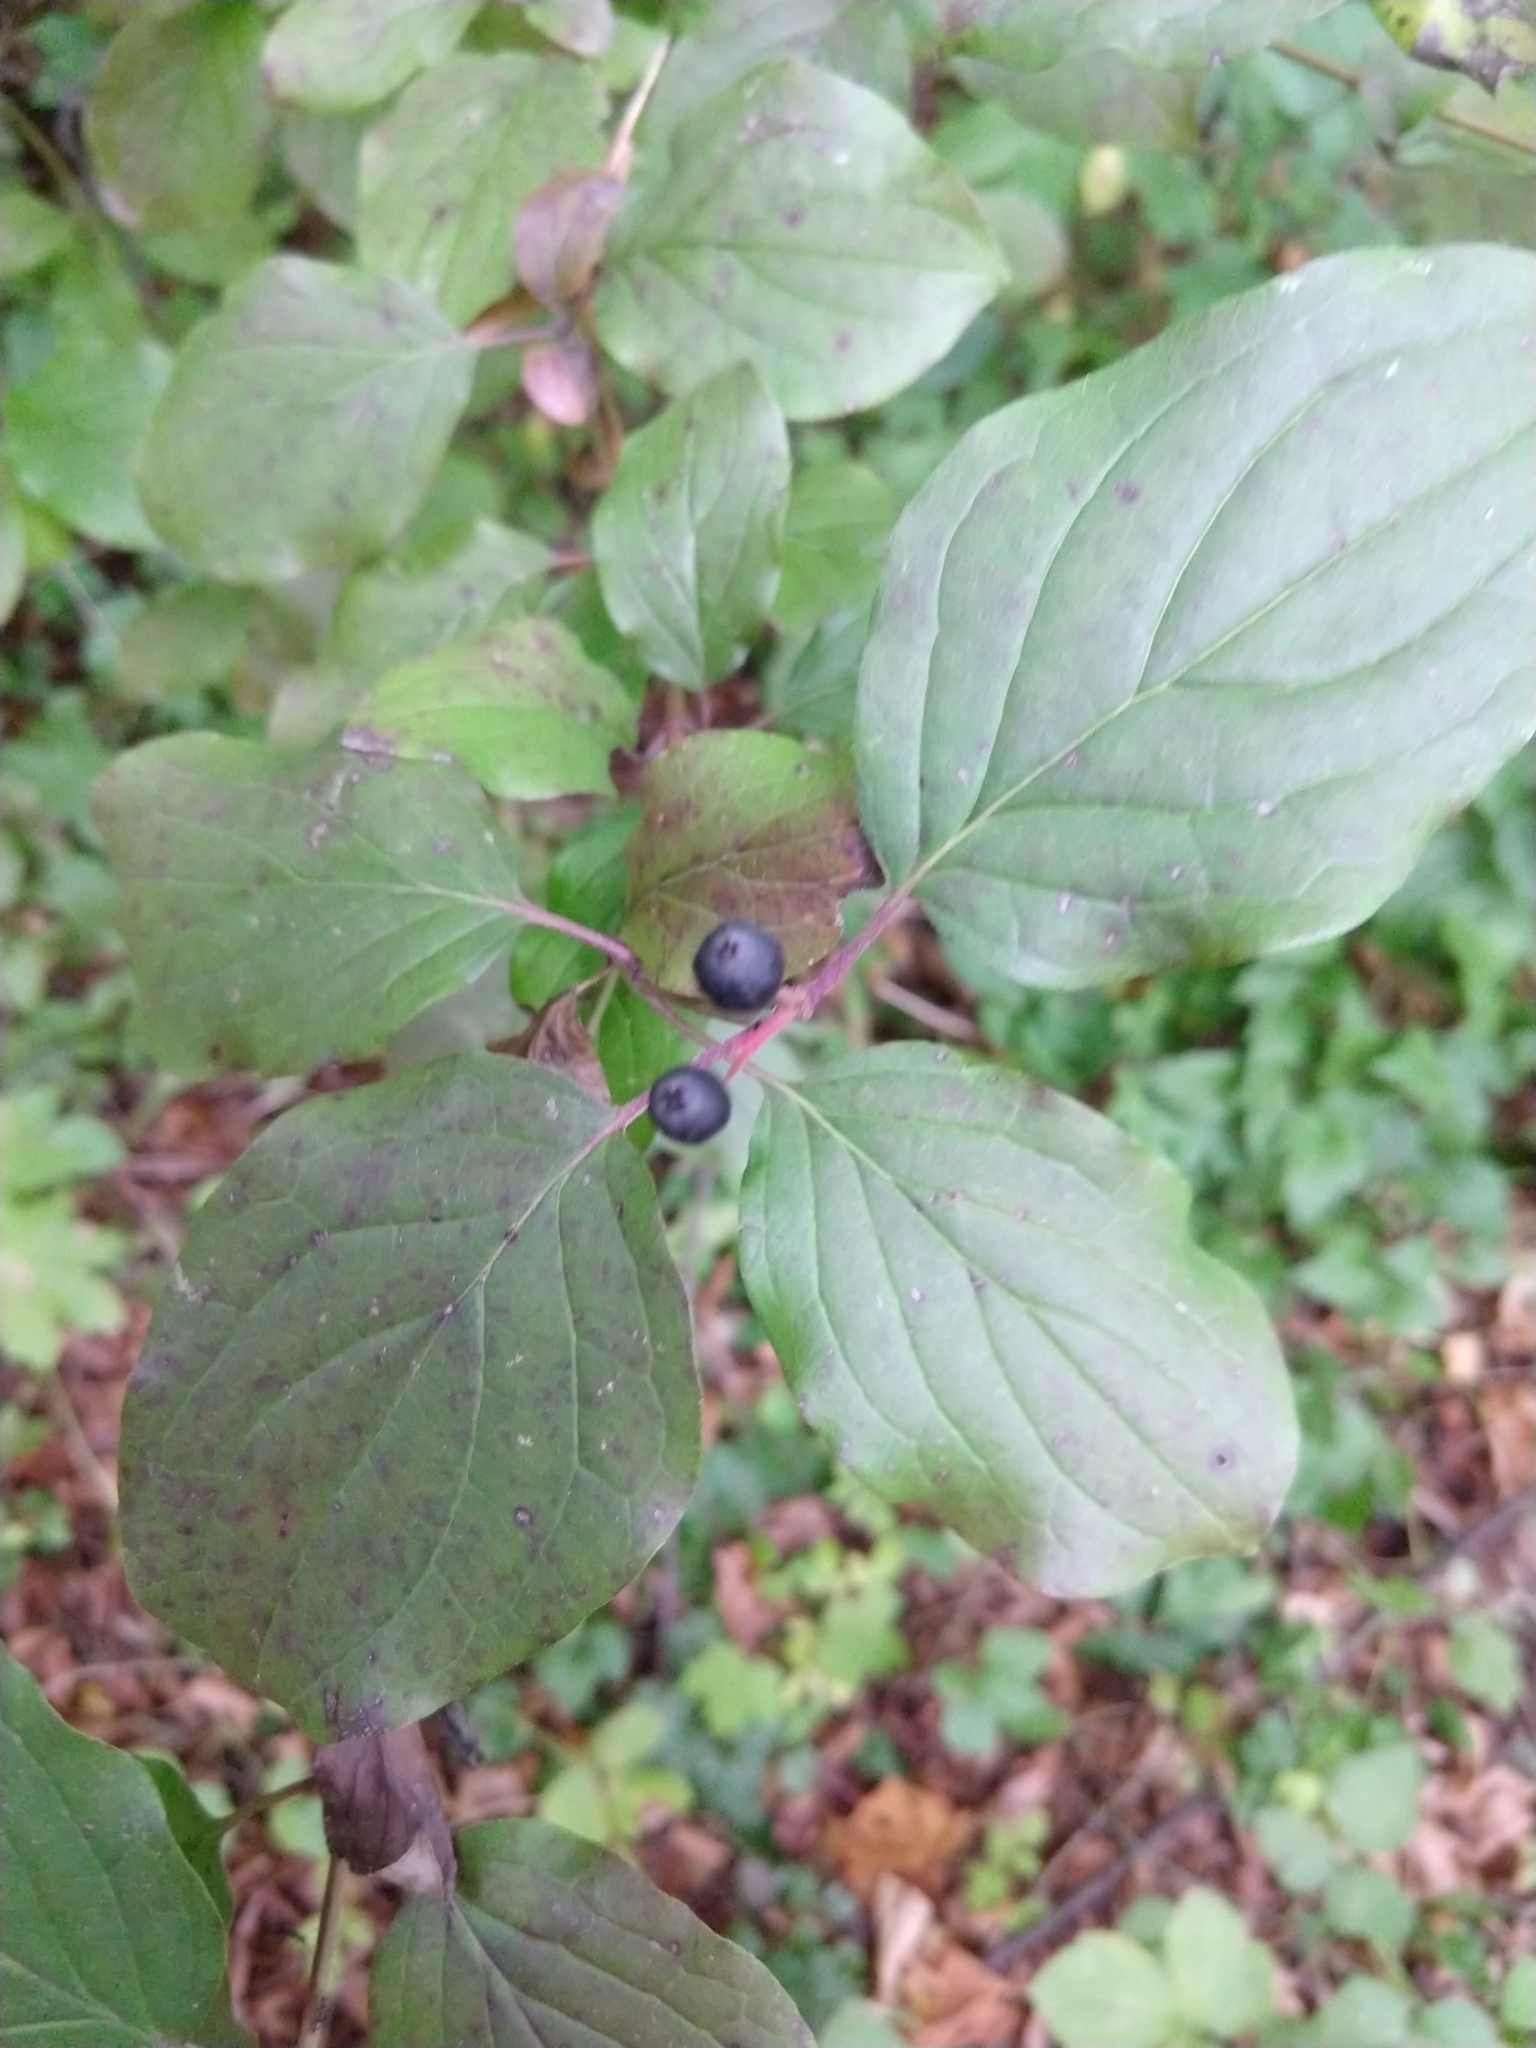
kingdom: Plantae
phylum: Tracheophyta
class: Magnoliopsida
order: Cornales
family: Cornaceae
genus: Cornus
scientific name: Cornus sanguinea
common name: Dogwood
